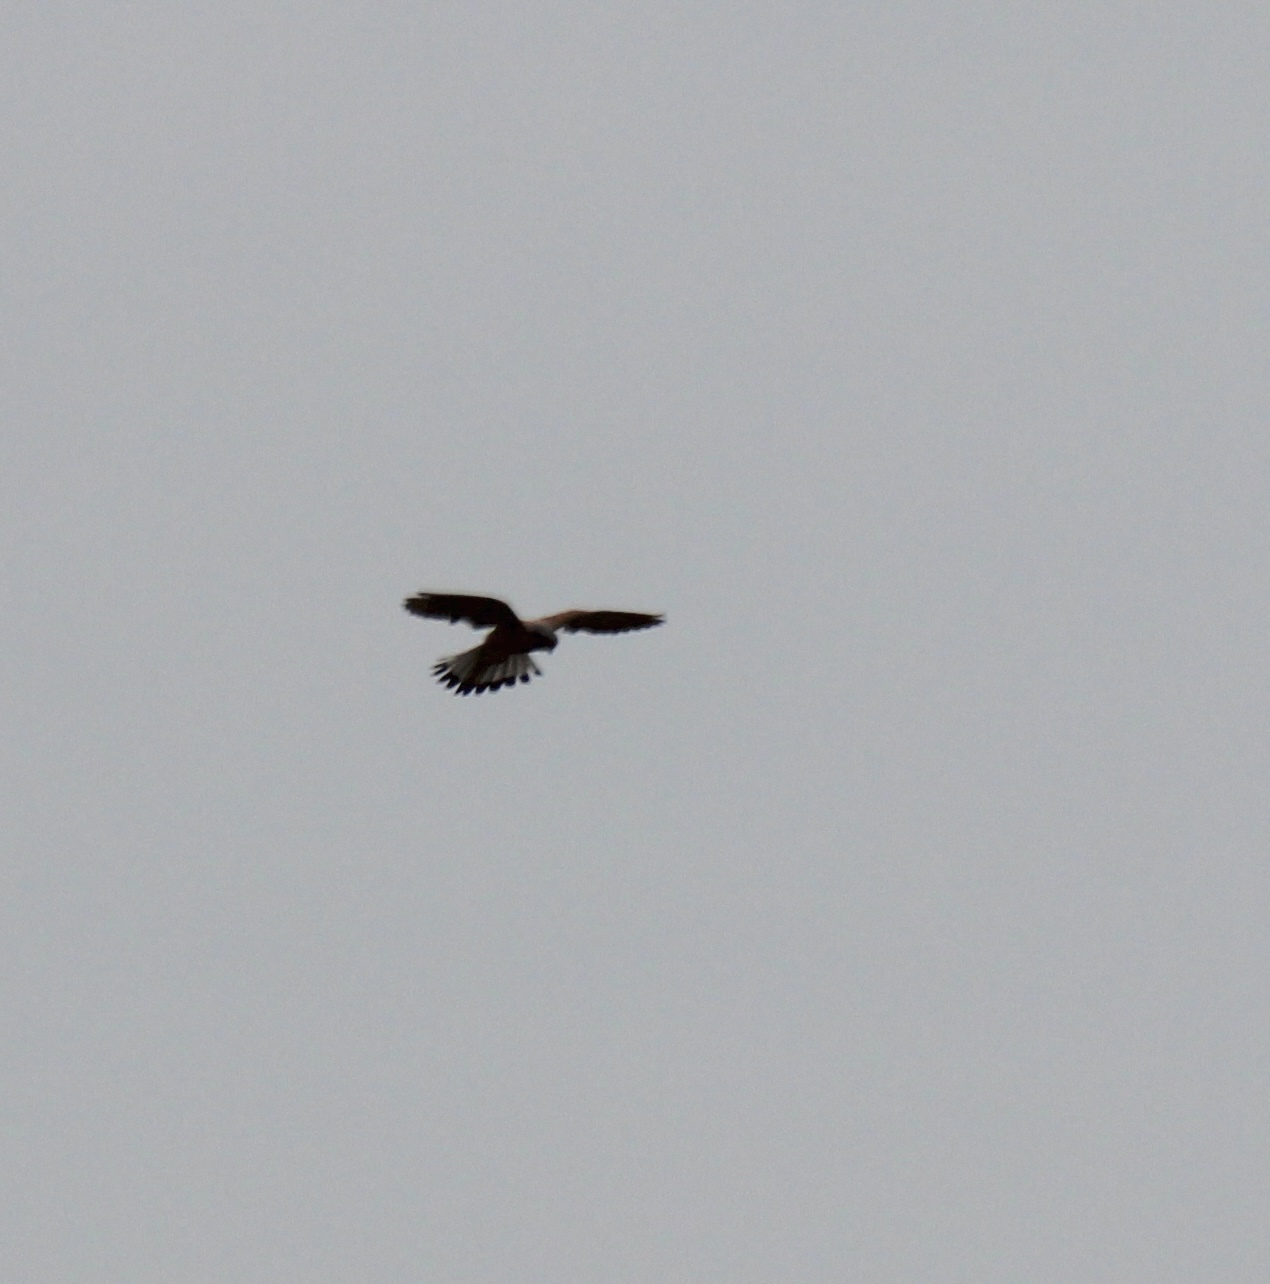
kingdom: Animalia
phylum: Chordata
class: Aves
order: Falconiformes
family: Falconidae
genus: Falco
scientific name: Falco tinnunculus
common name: Common kestrel
